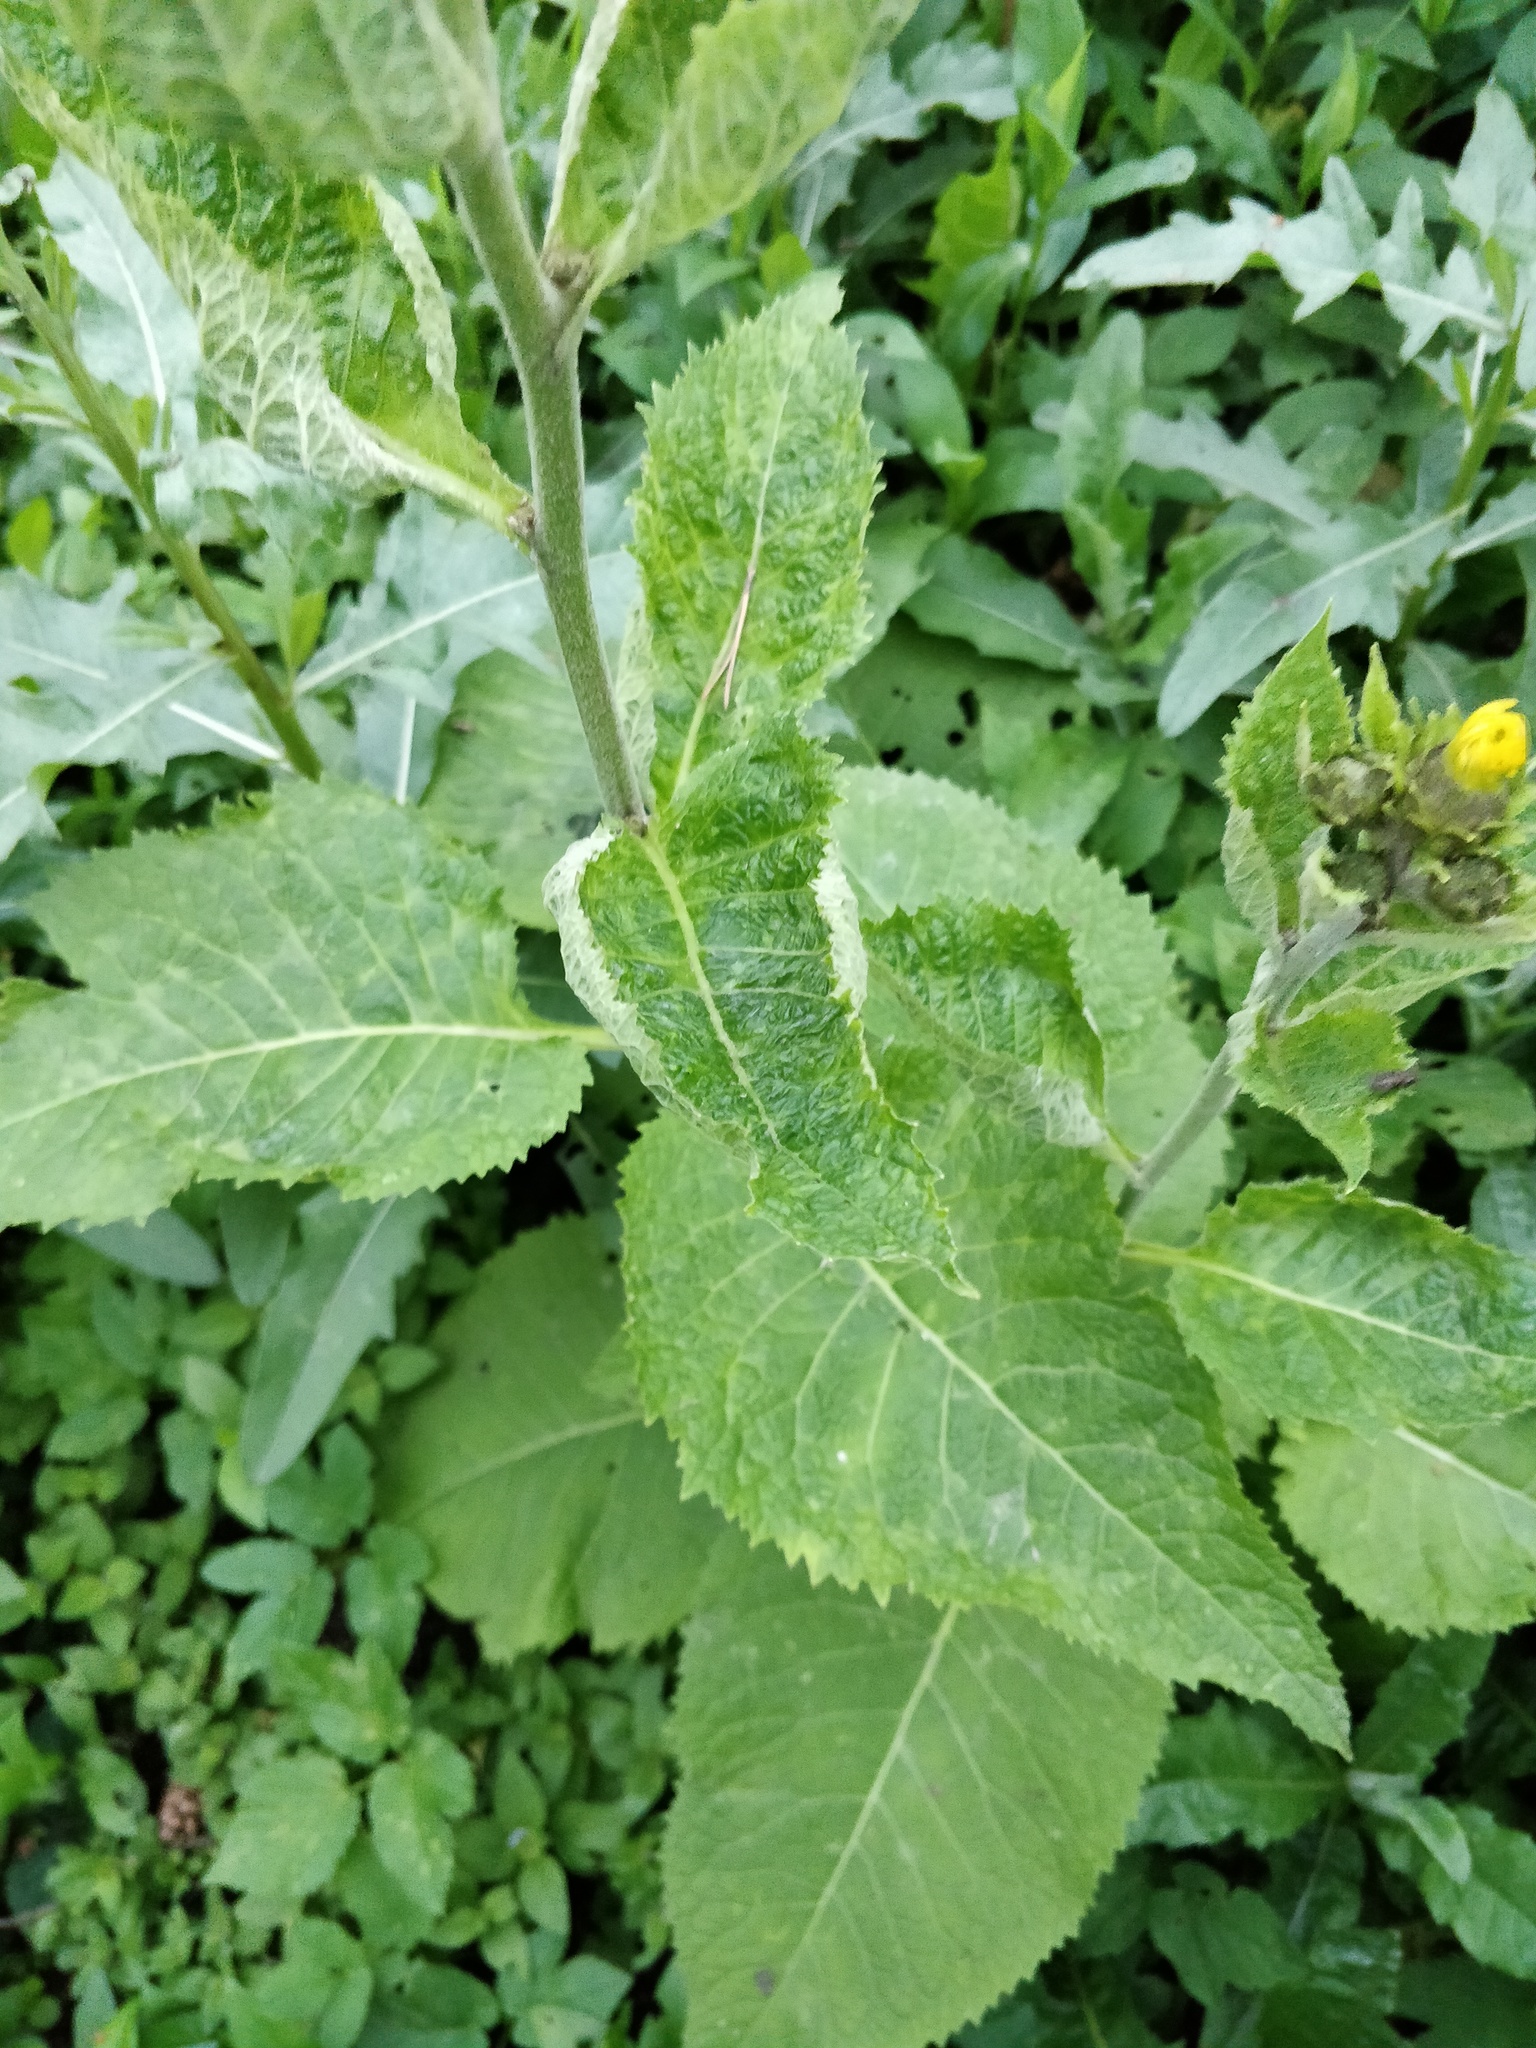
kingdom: Plantae
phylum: Tracheophyta
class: Magnoliopsida
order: Asterales
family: Asteraceae
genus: Telekia
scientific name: Telekia speciosa
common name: Yellow oxeye
